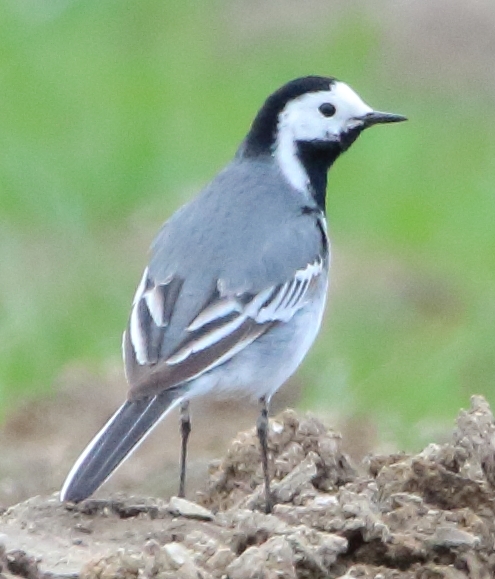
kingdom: Animalia
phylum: Chordata
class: Aves
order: Passeriformes
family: Motacillidae
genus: Motacilla
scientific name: Motacilla alba
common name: White wagtail
